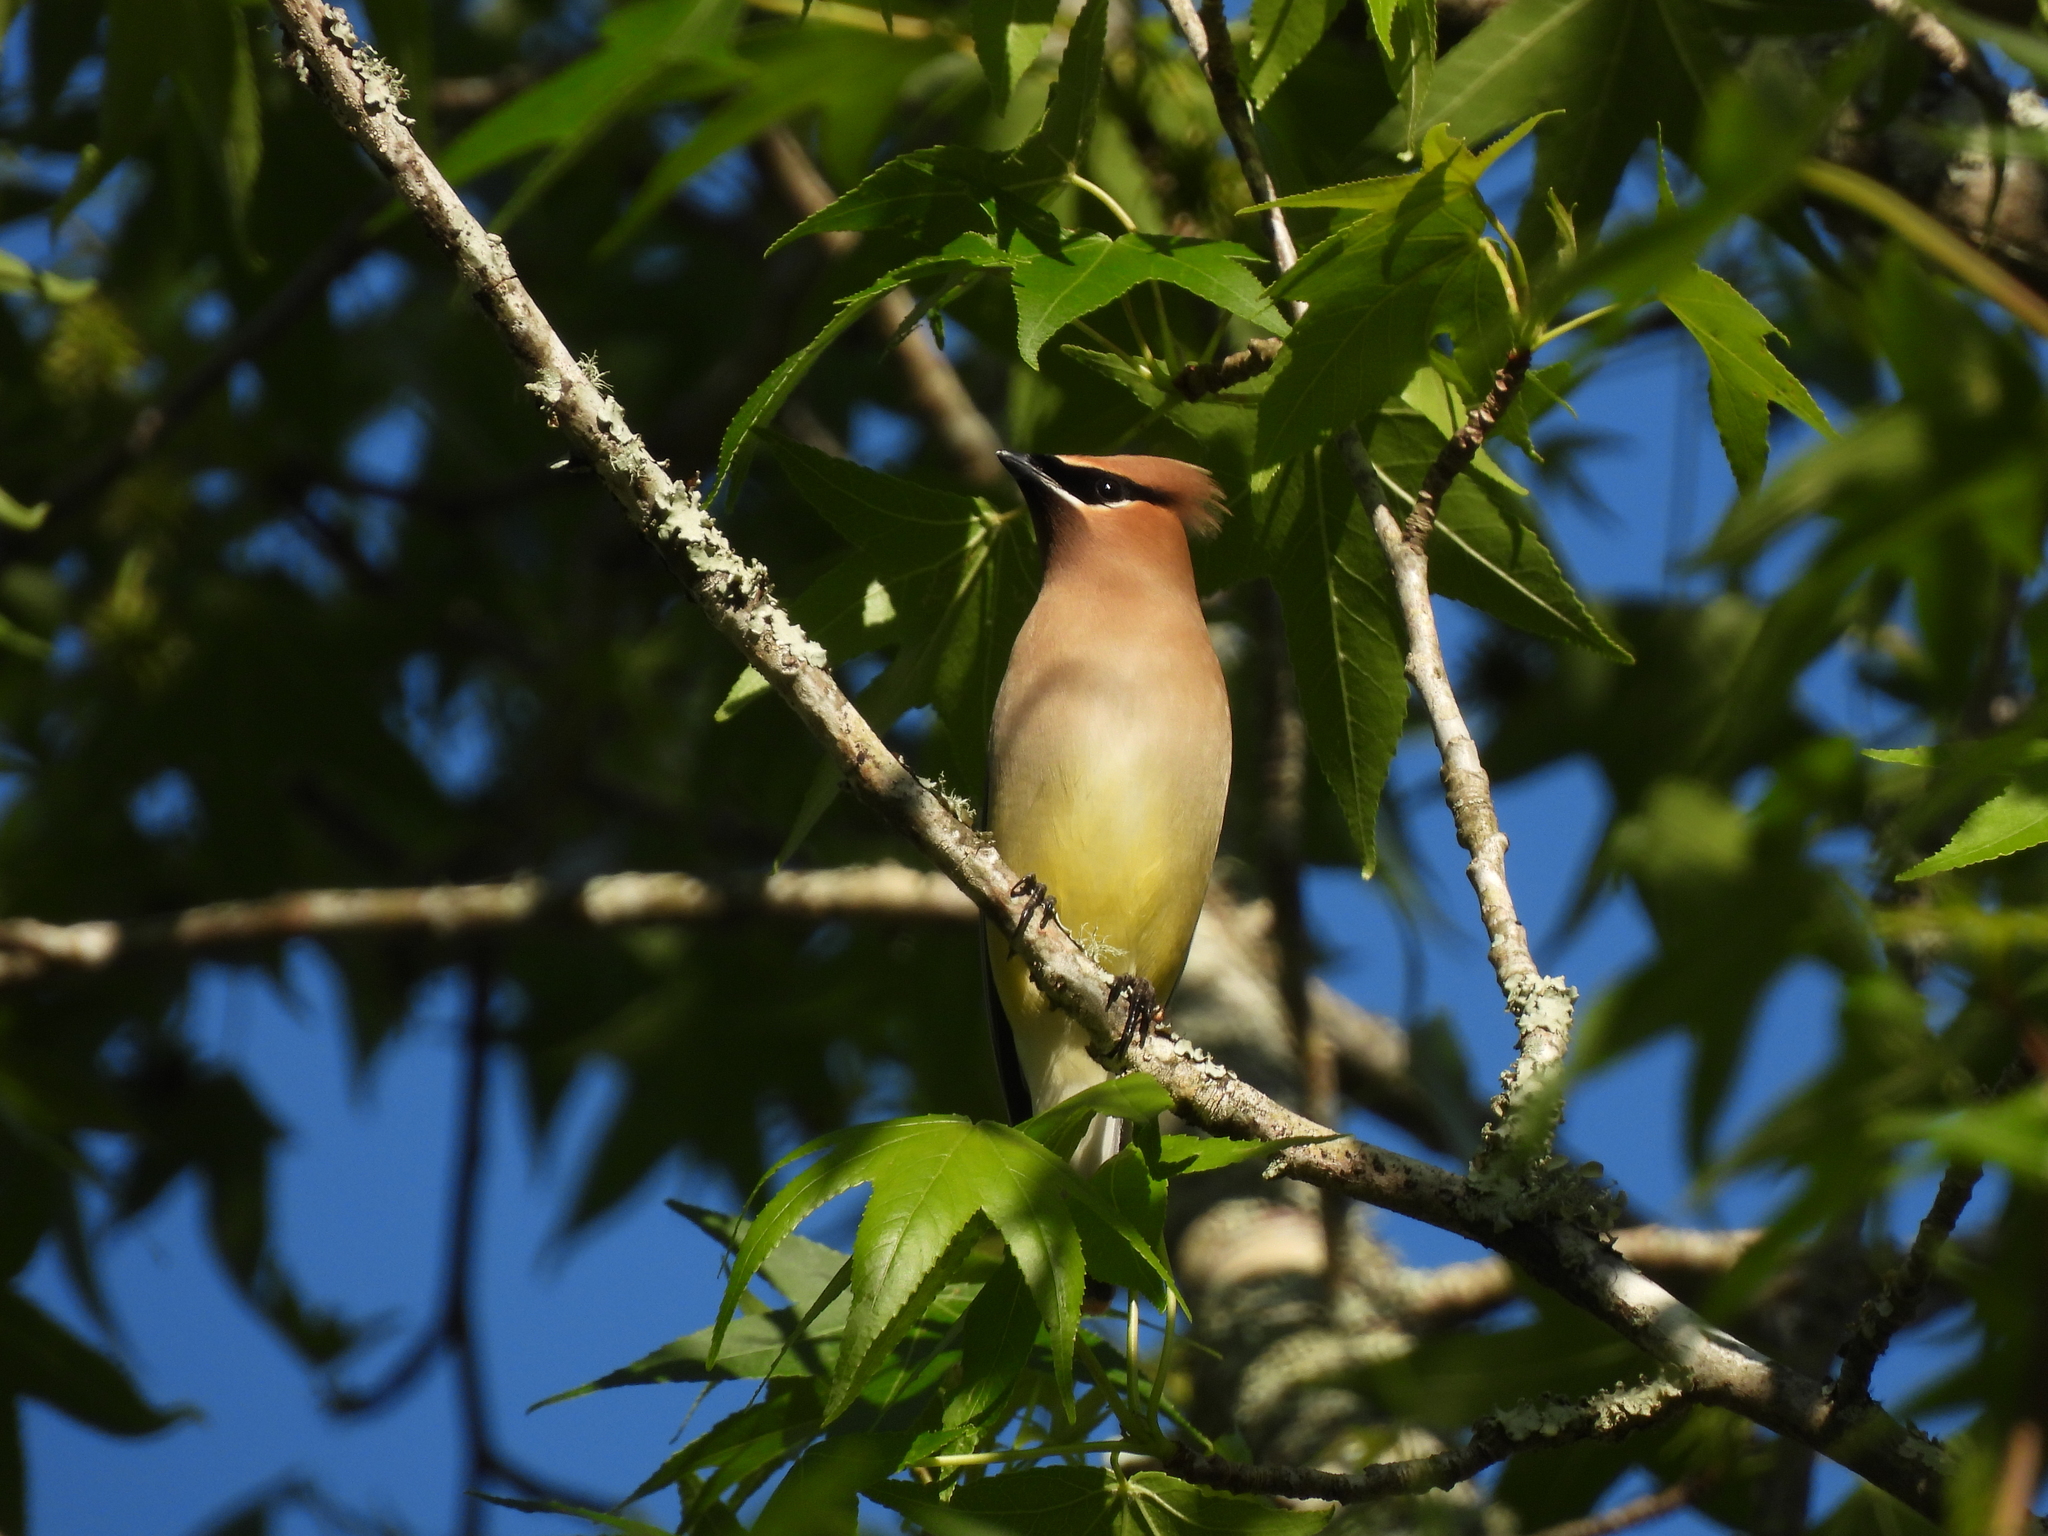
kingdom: Animalia
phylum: Chordata
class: Aves
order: Passeriformes
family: Bombycillidae
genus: Bombycilla
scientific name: Bombycilla cedrorum
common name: Cedar waxwing
